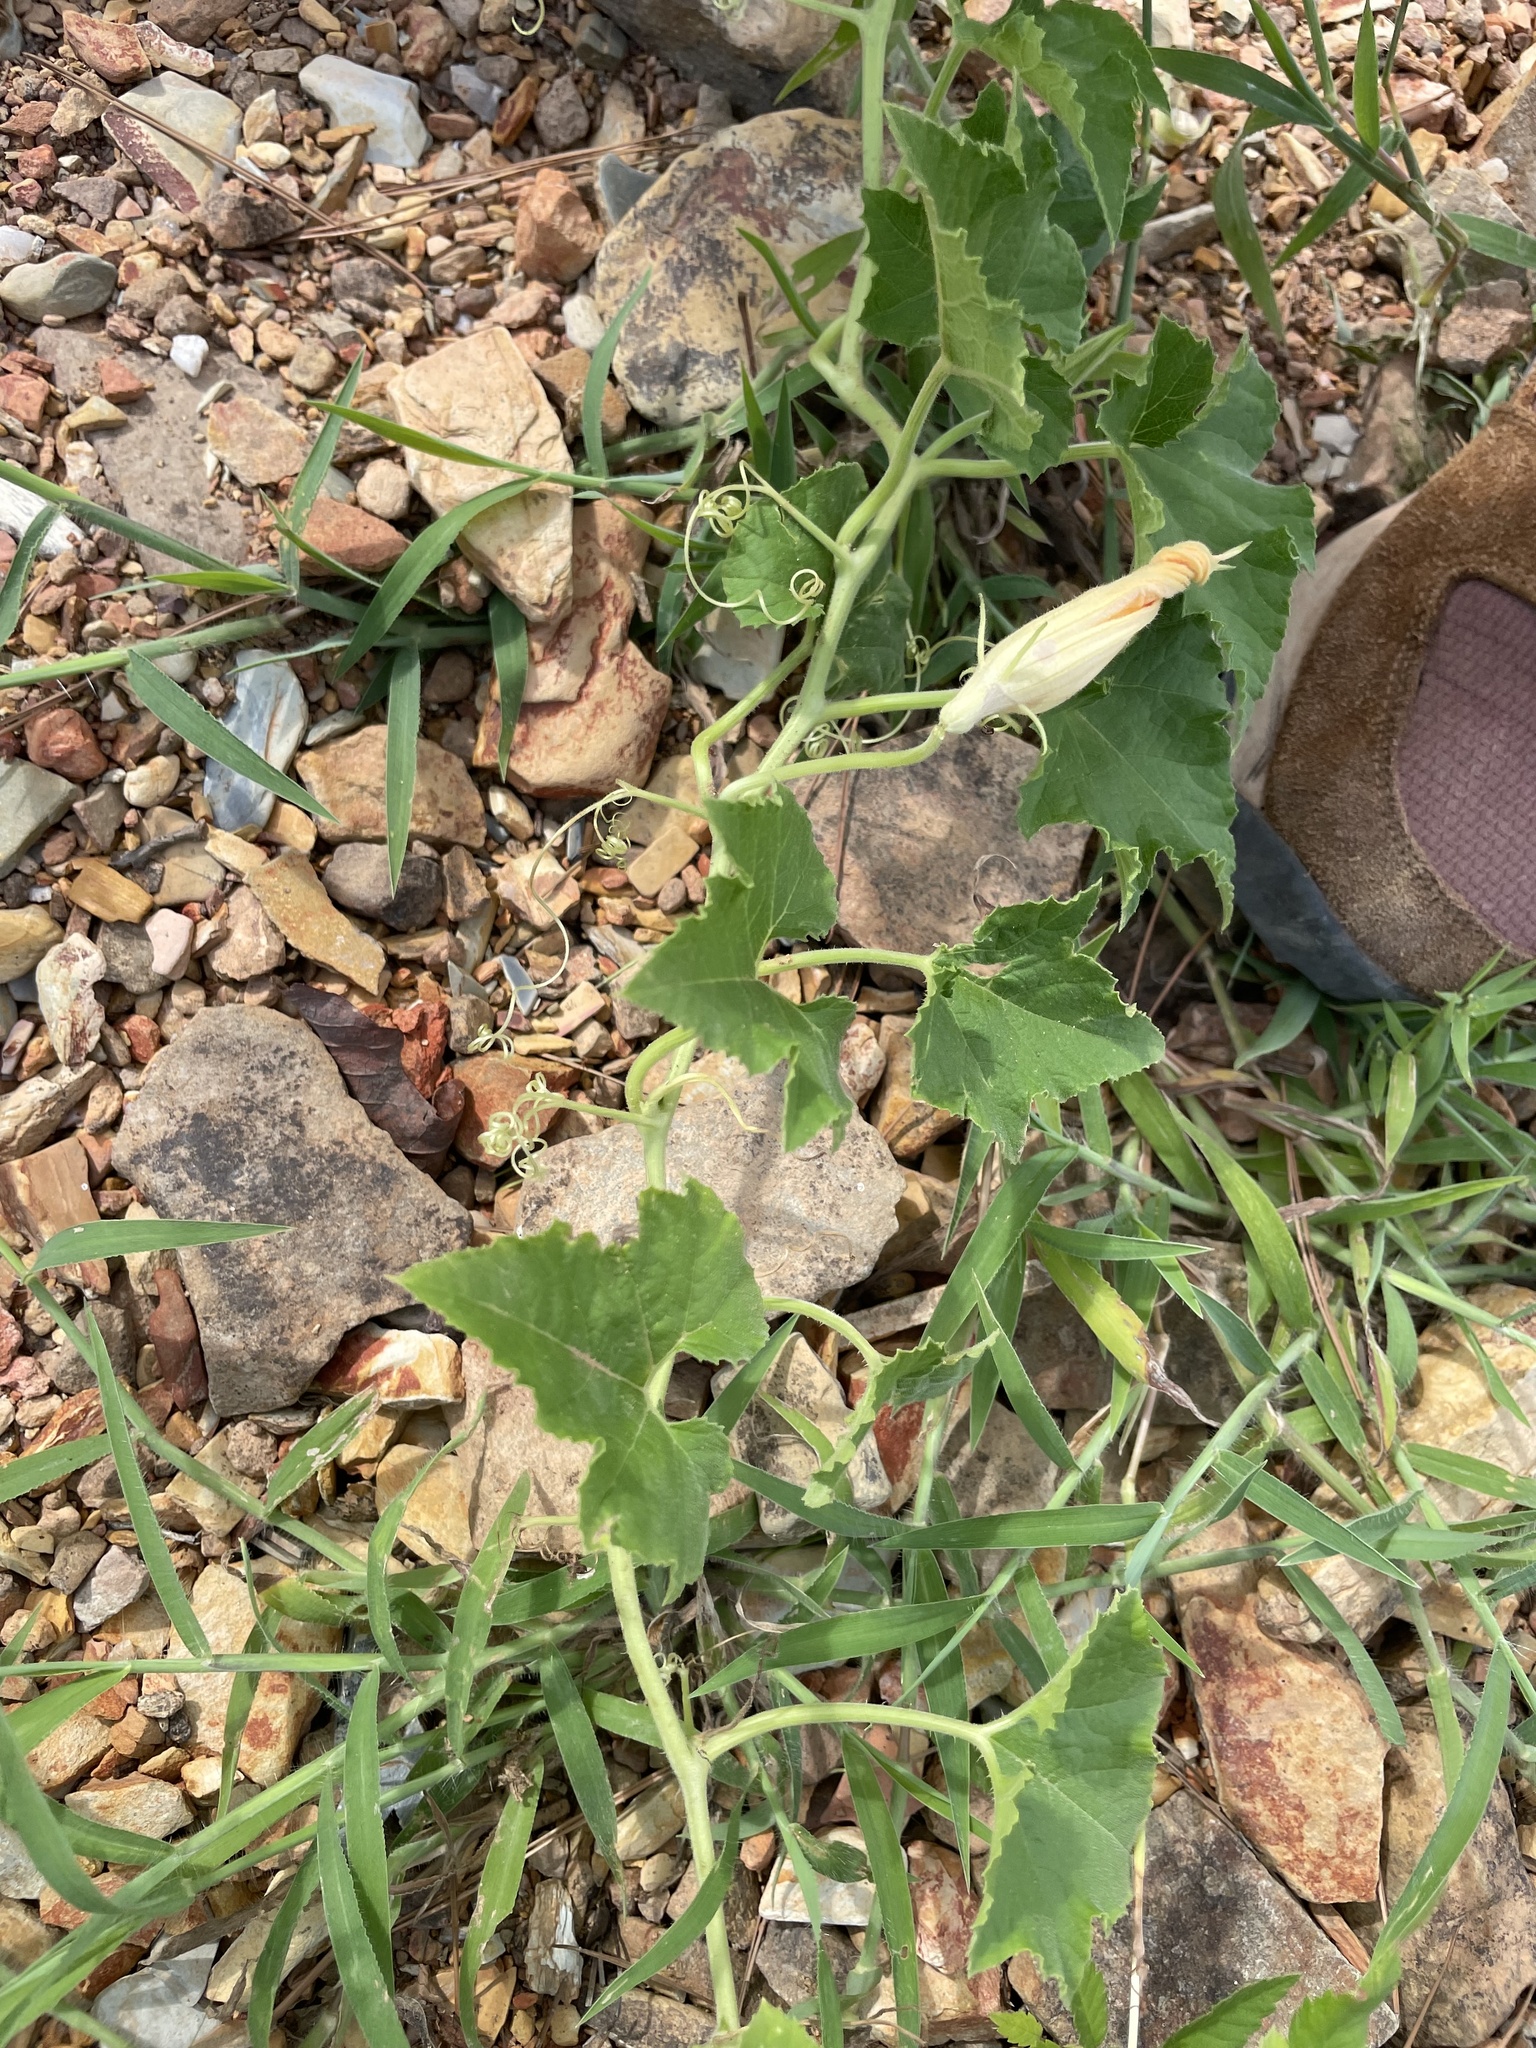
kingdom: Plantae
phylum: Tracheophyta
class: Magnoliopsida
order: Cucurbitales
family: Cucurbitaceae
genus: Melothria
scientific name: Melothria pendula
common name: Creeping-cucumber
